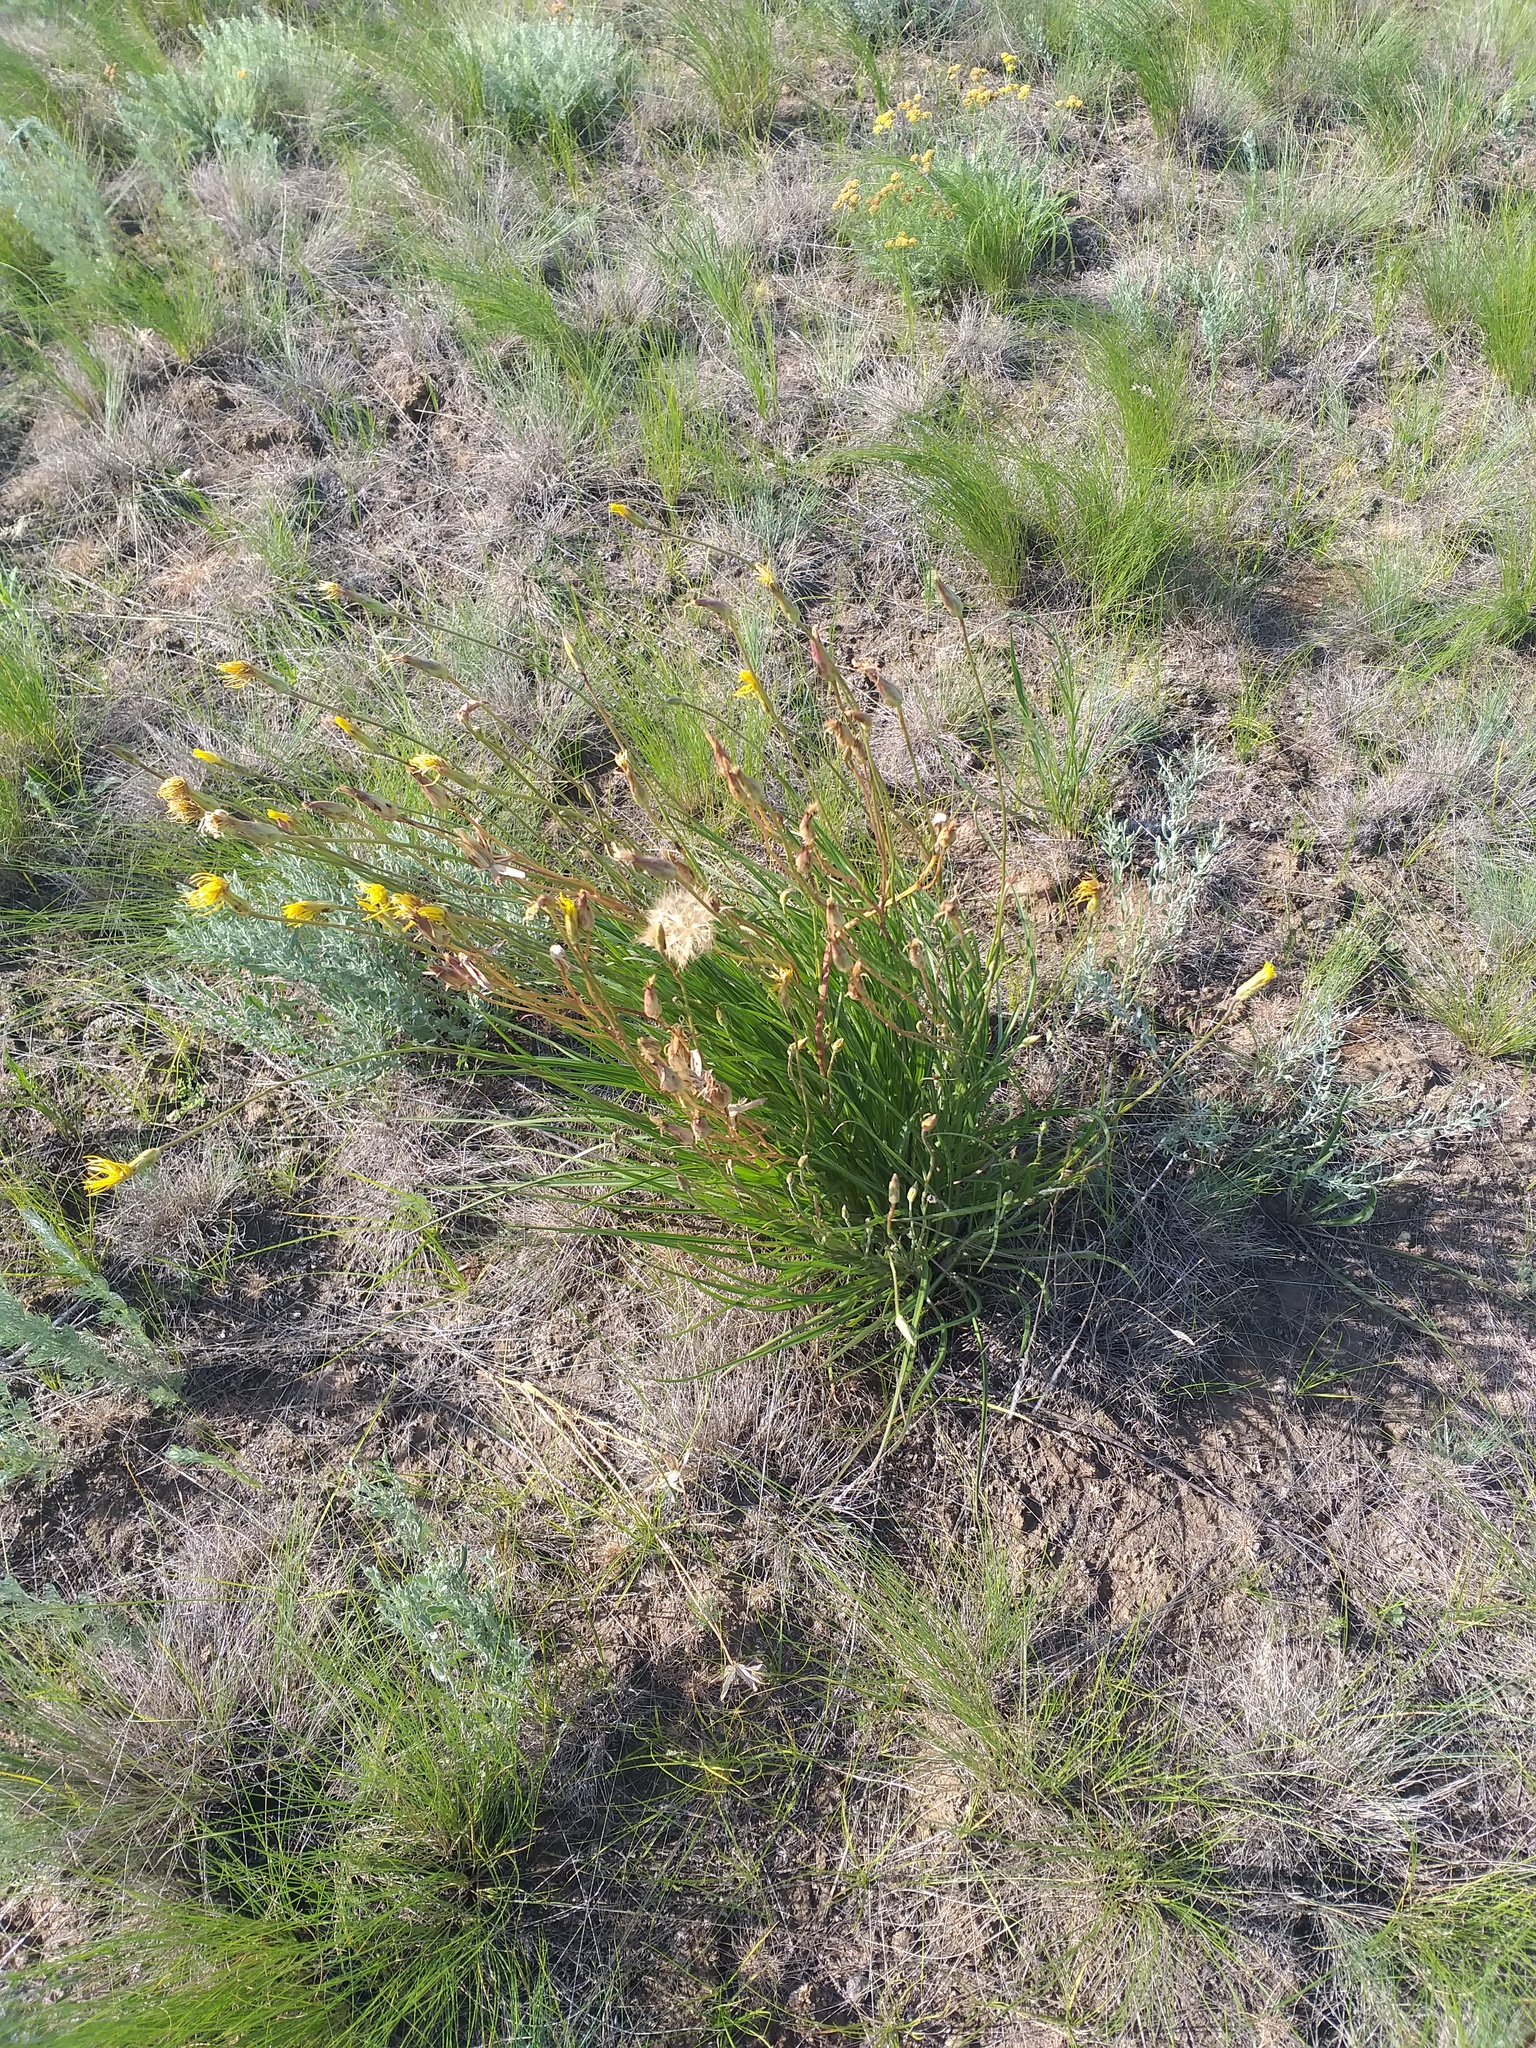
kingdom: Plantae
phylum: Tracheophyta
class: Magnoliopsida
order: Asterales
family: Asteraceae
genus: Pseudopodospermum
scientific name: Pseudopodospermum strictum
